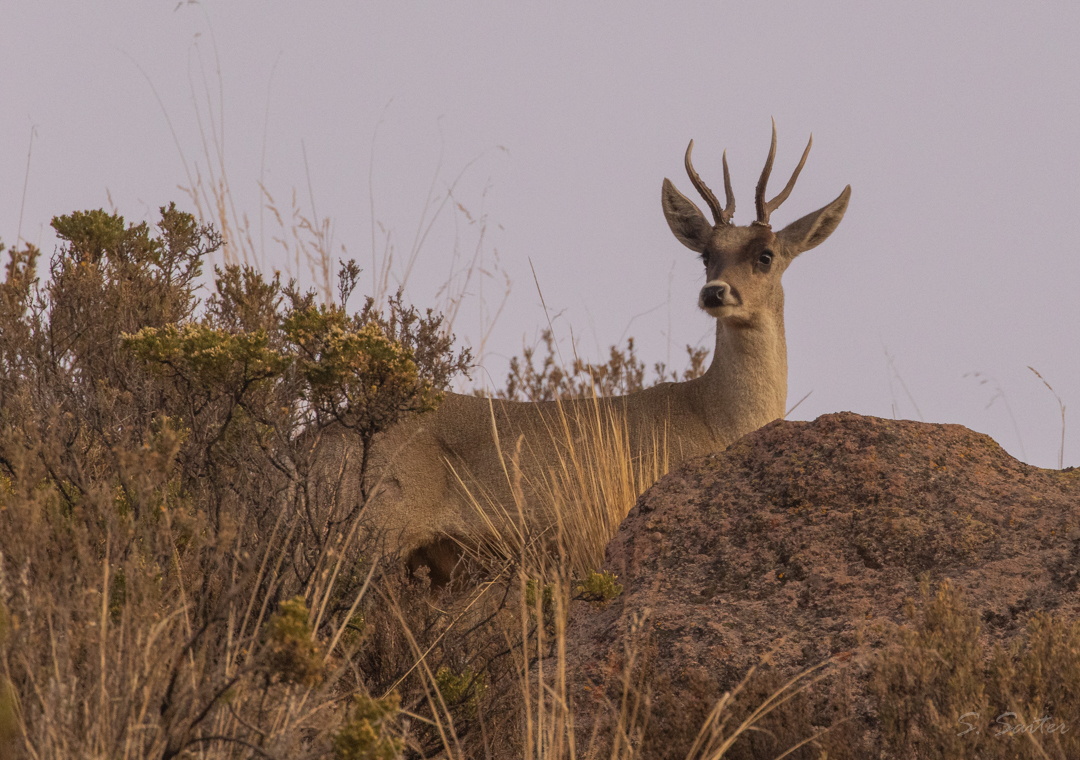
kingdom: Animalia
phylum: Chordata
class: Mammalia
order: Artiodactyla
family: Cervidae
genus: Hippocamelus
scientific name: Hippocamelus antisensis
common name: Taruca
